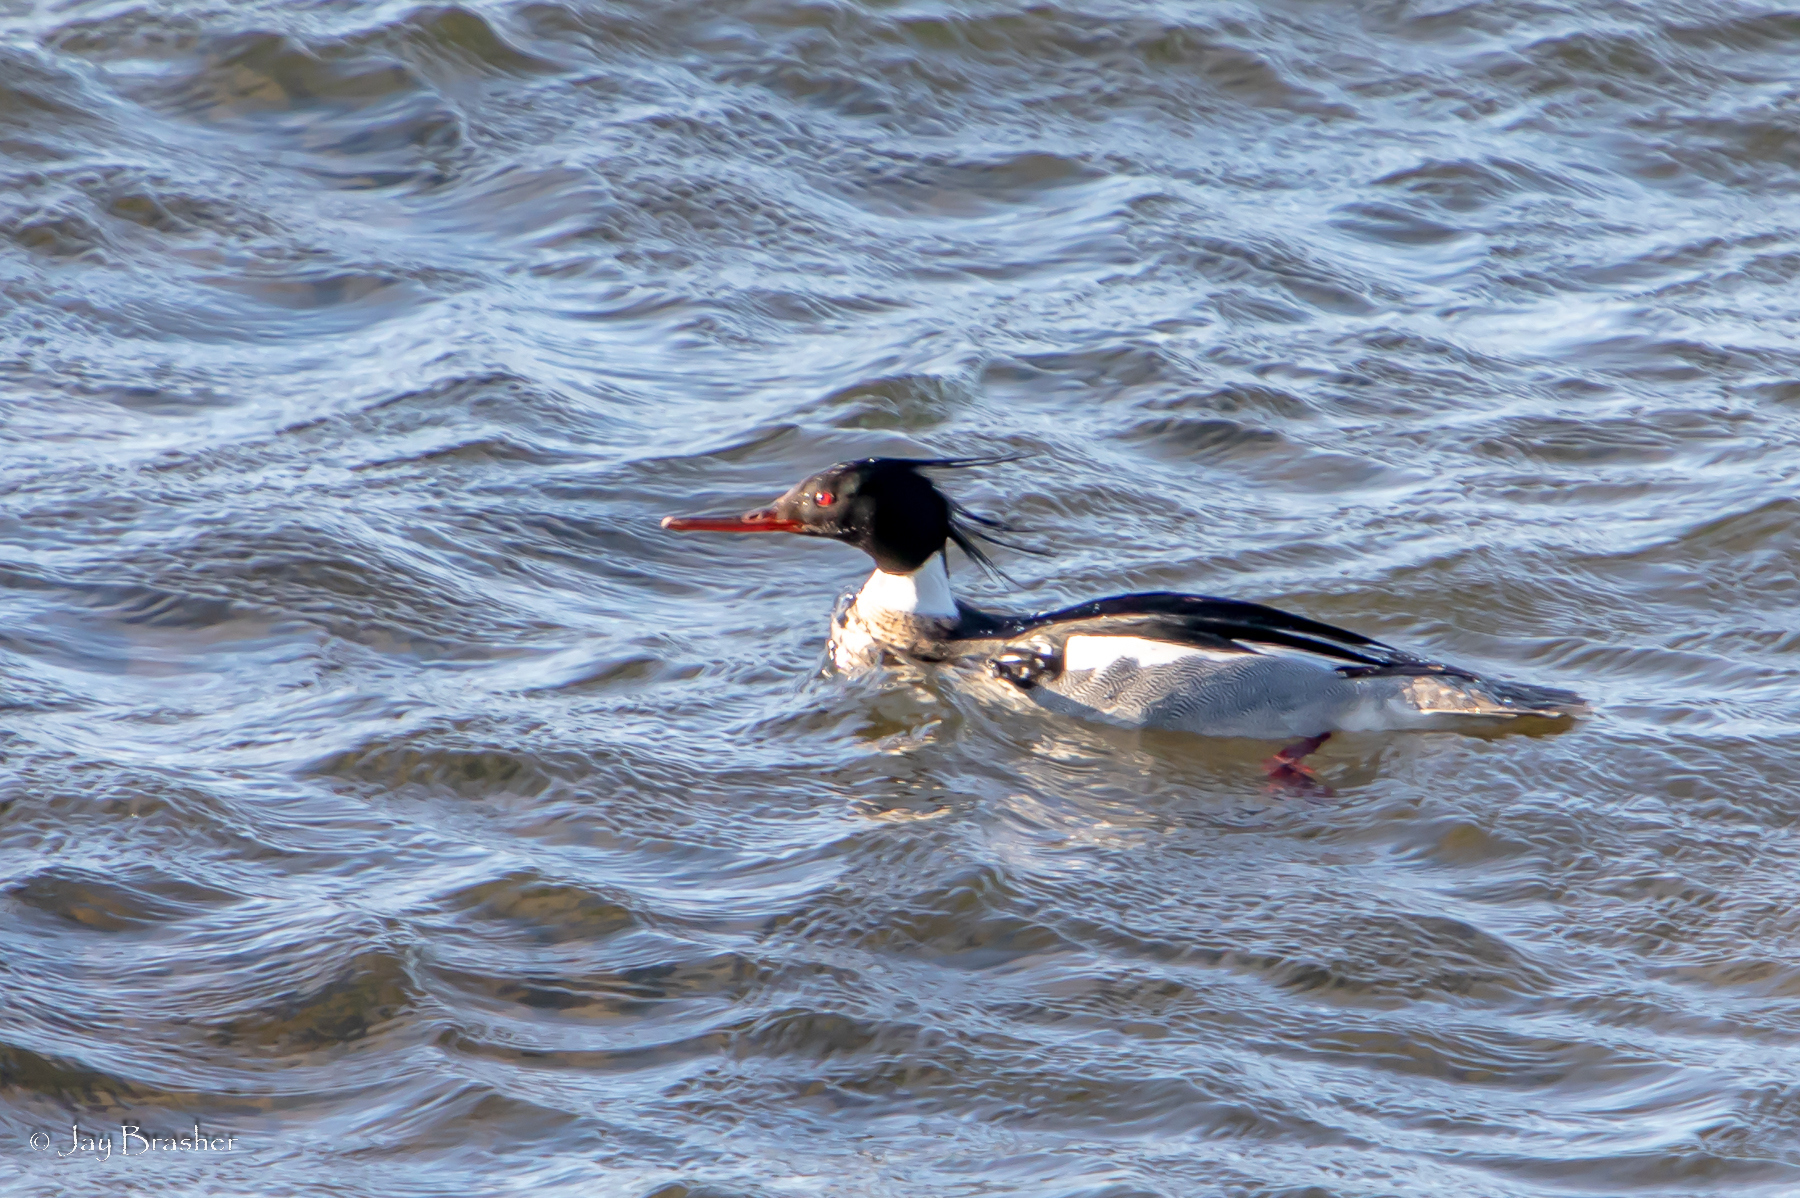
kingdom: Animalia
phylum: Chordata
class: Aves
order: Anseriformes
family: Anatidae
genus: Mergus
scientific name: Mergus serrator
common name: Red-breasted merganser
